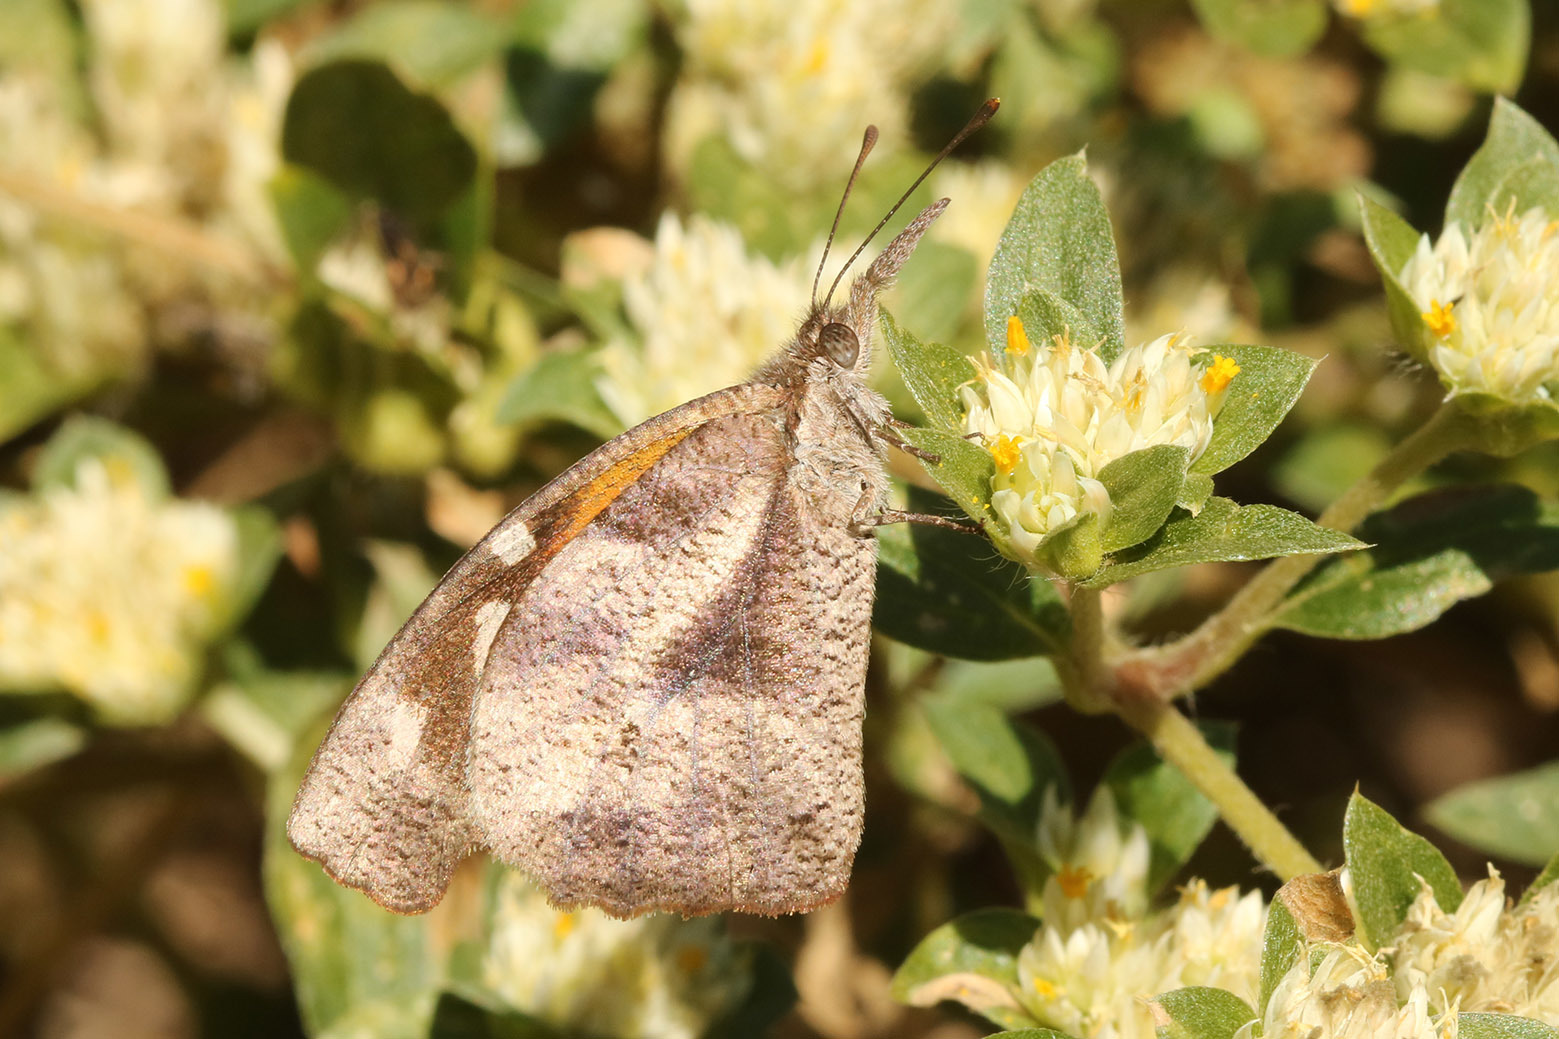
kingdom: Animalia
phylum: Arthropoda
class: Insecta
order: Lepidoptera
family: Nymphalidae
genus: Libytheana
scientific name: Libytheana carinenta
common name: American snout
